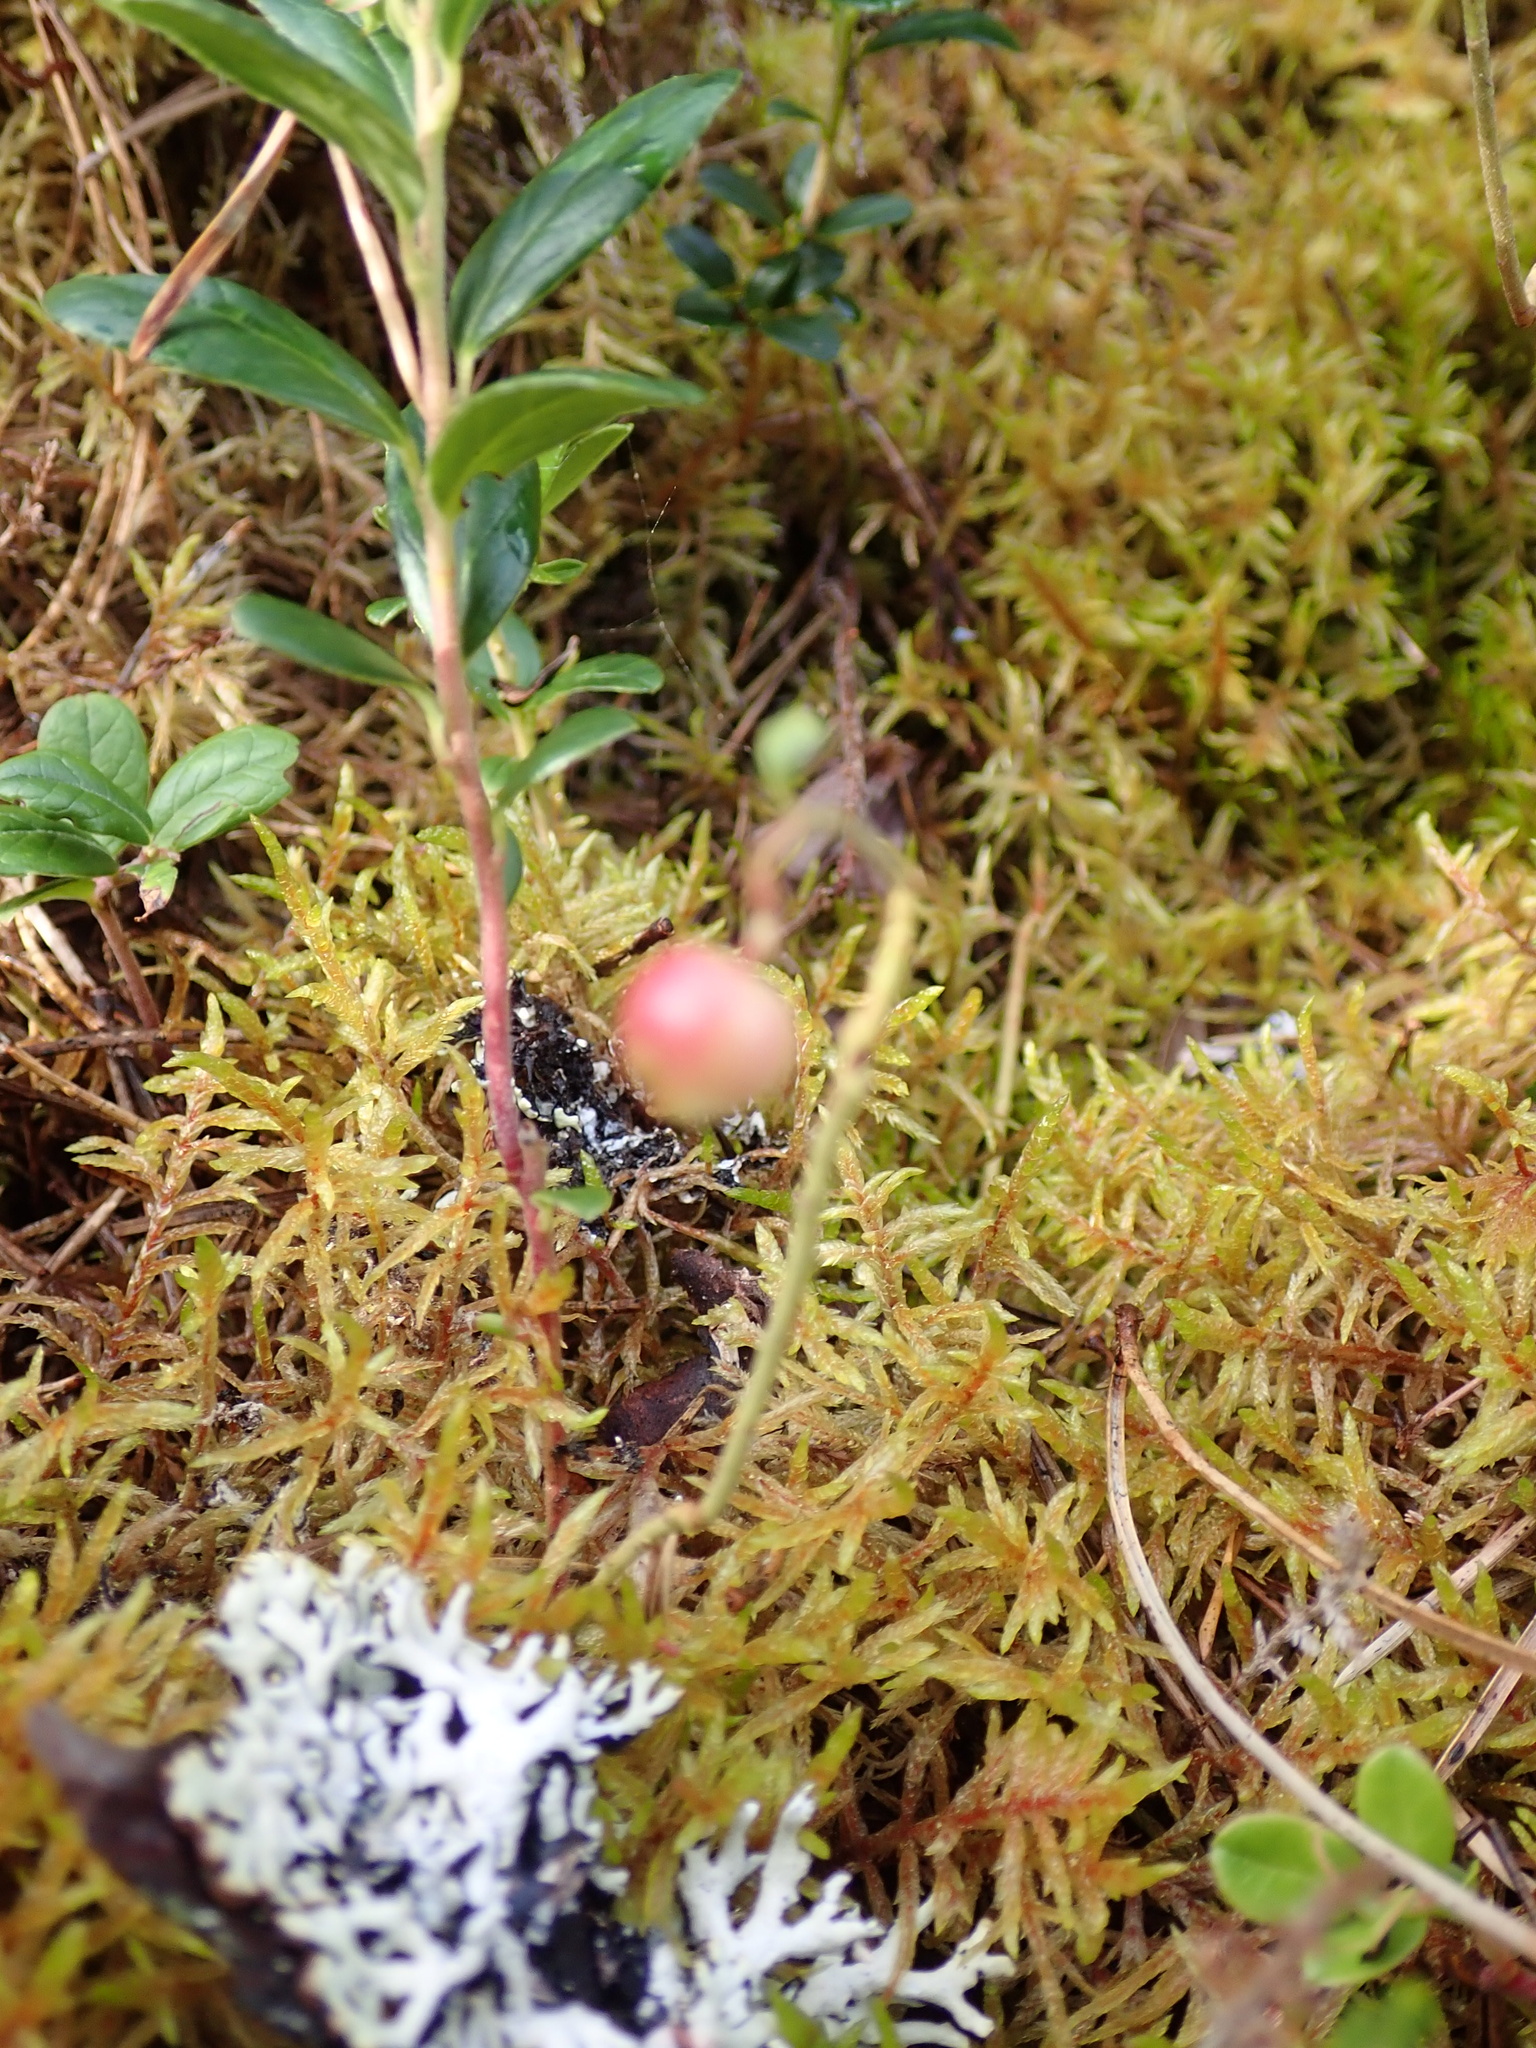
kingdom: Plantae
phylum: Tracheophyta
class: Magnoliopsida
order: Ericales
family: Ericaceae
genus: Vaccinium
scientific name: Vaccinium vitis-idaea
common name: Cowberry
